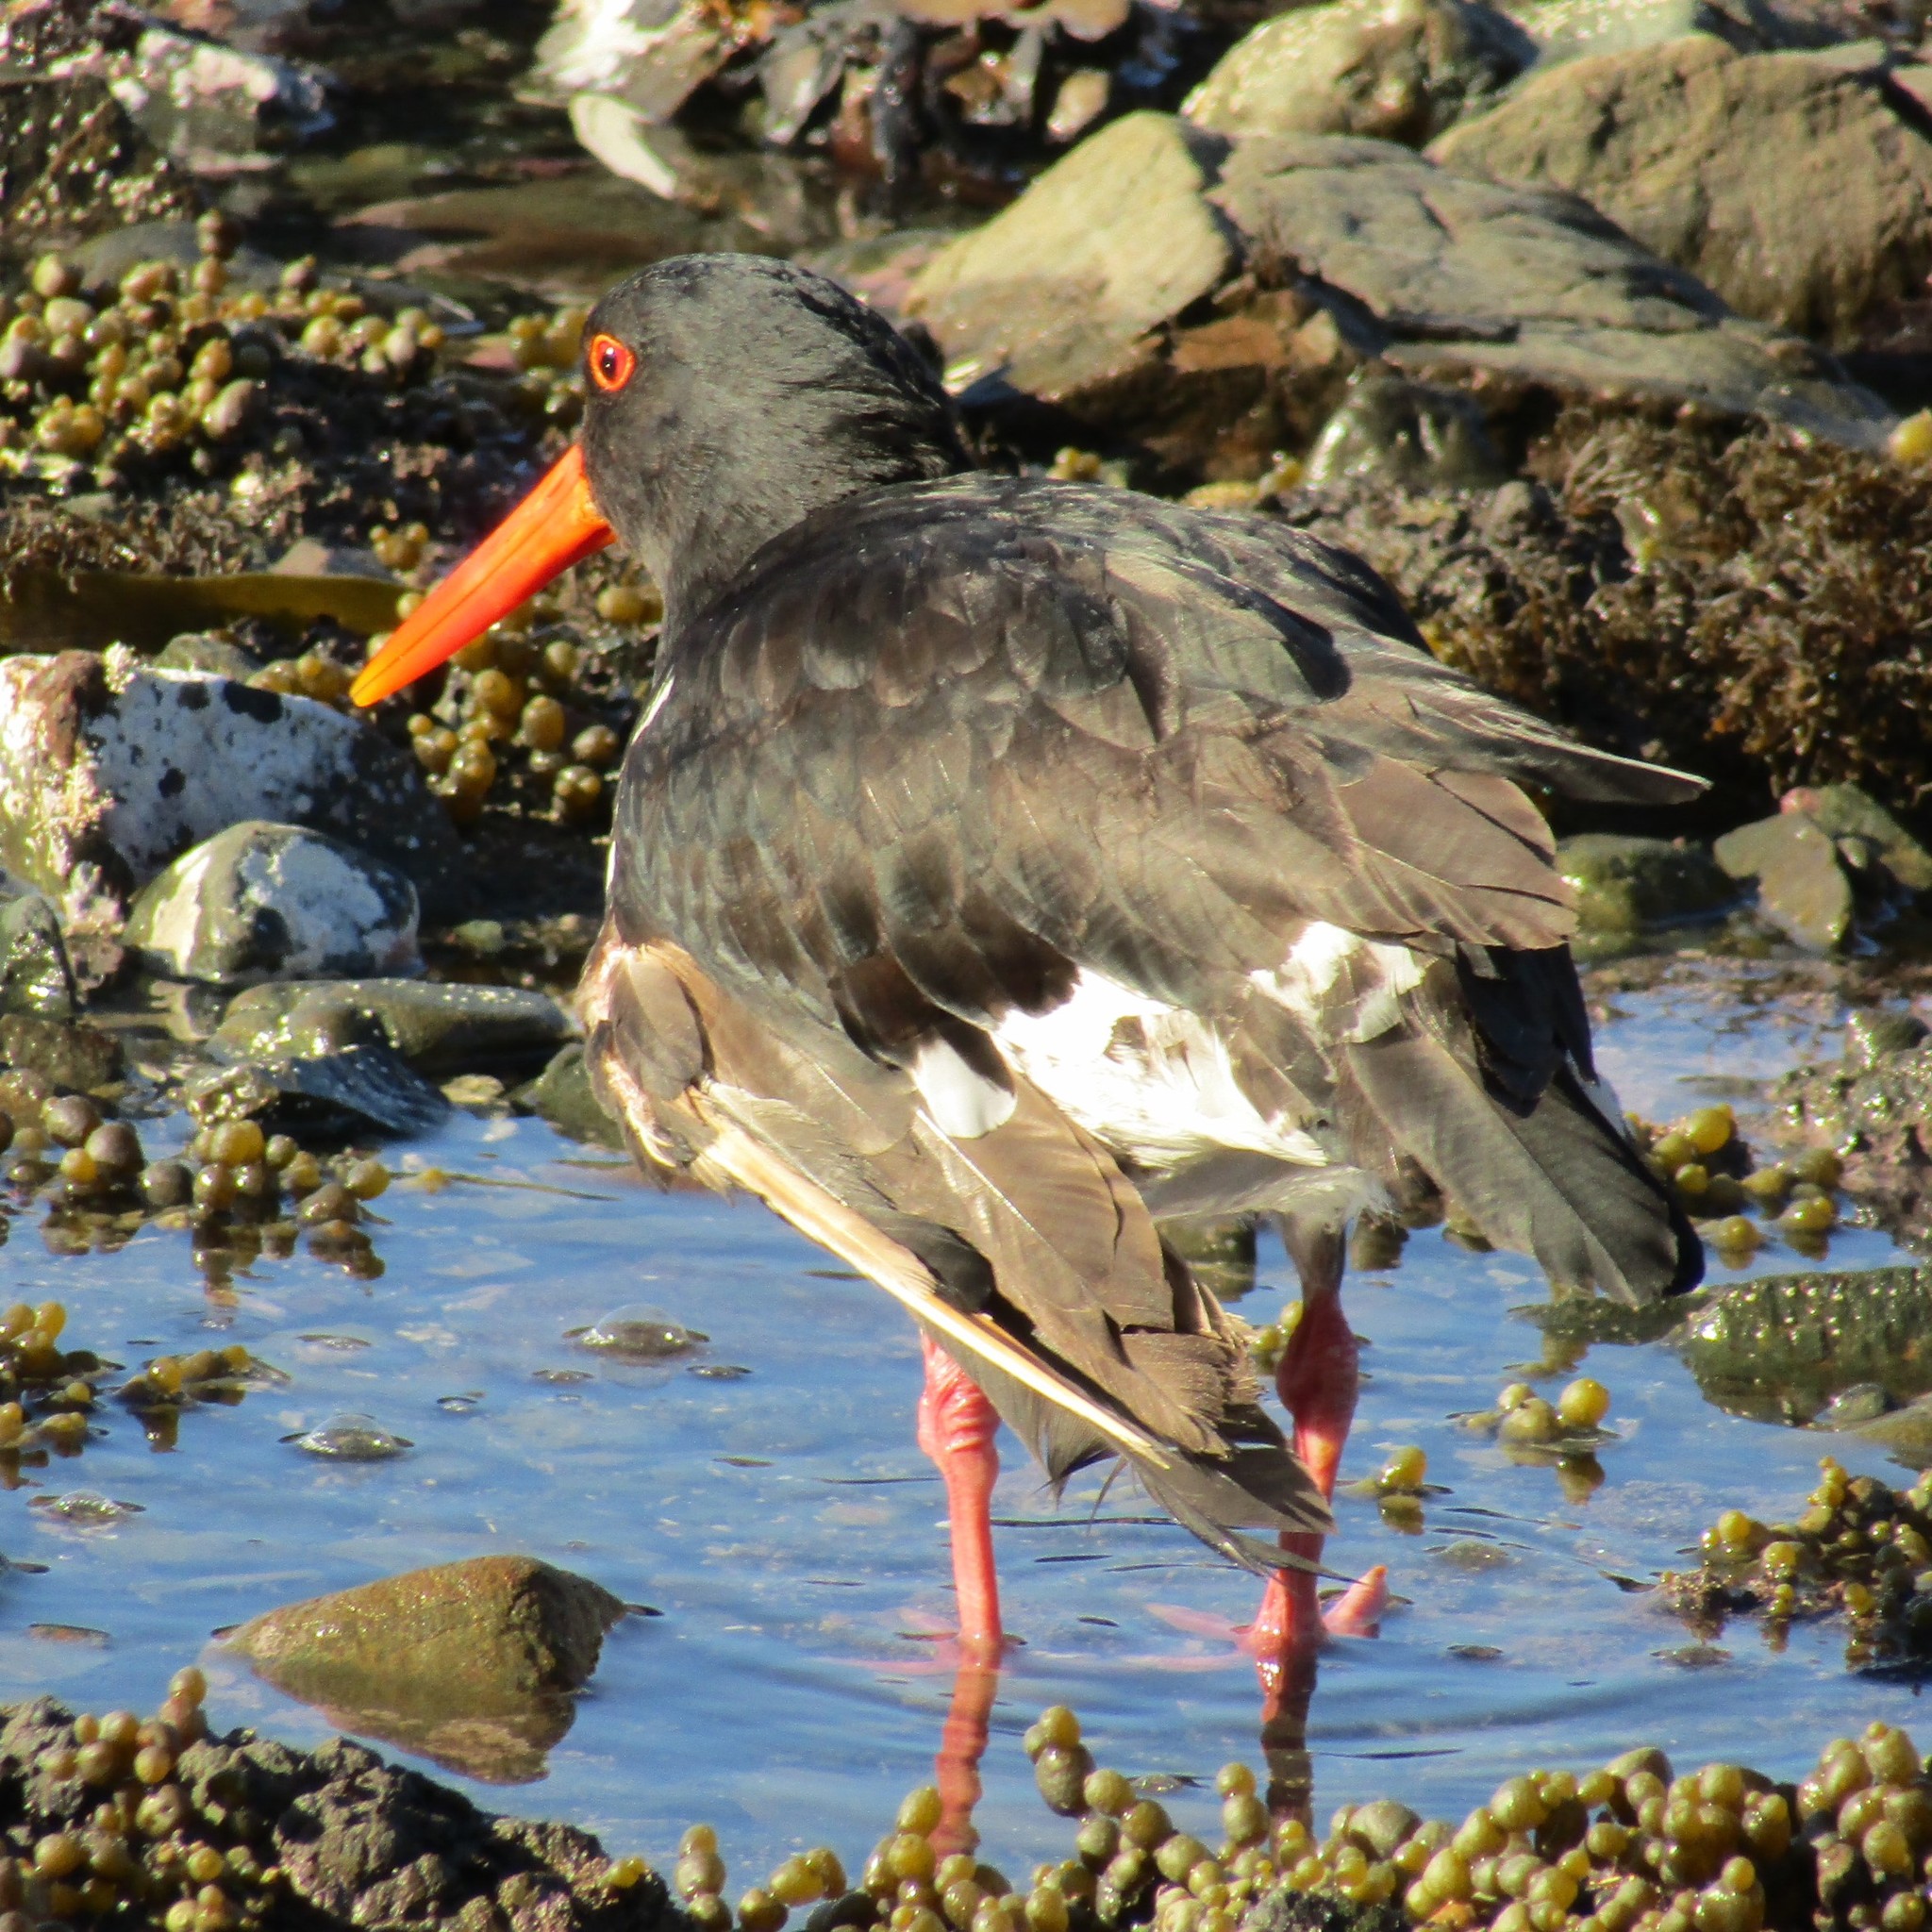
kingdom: Animalia
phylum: Chordata
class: Aves
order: Charadriiformes
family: Haematopodidae
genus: Haematopus
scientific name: Haematopus unicolor
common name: Variable oystercatcher
